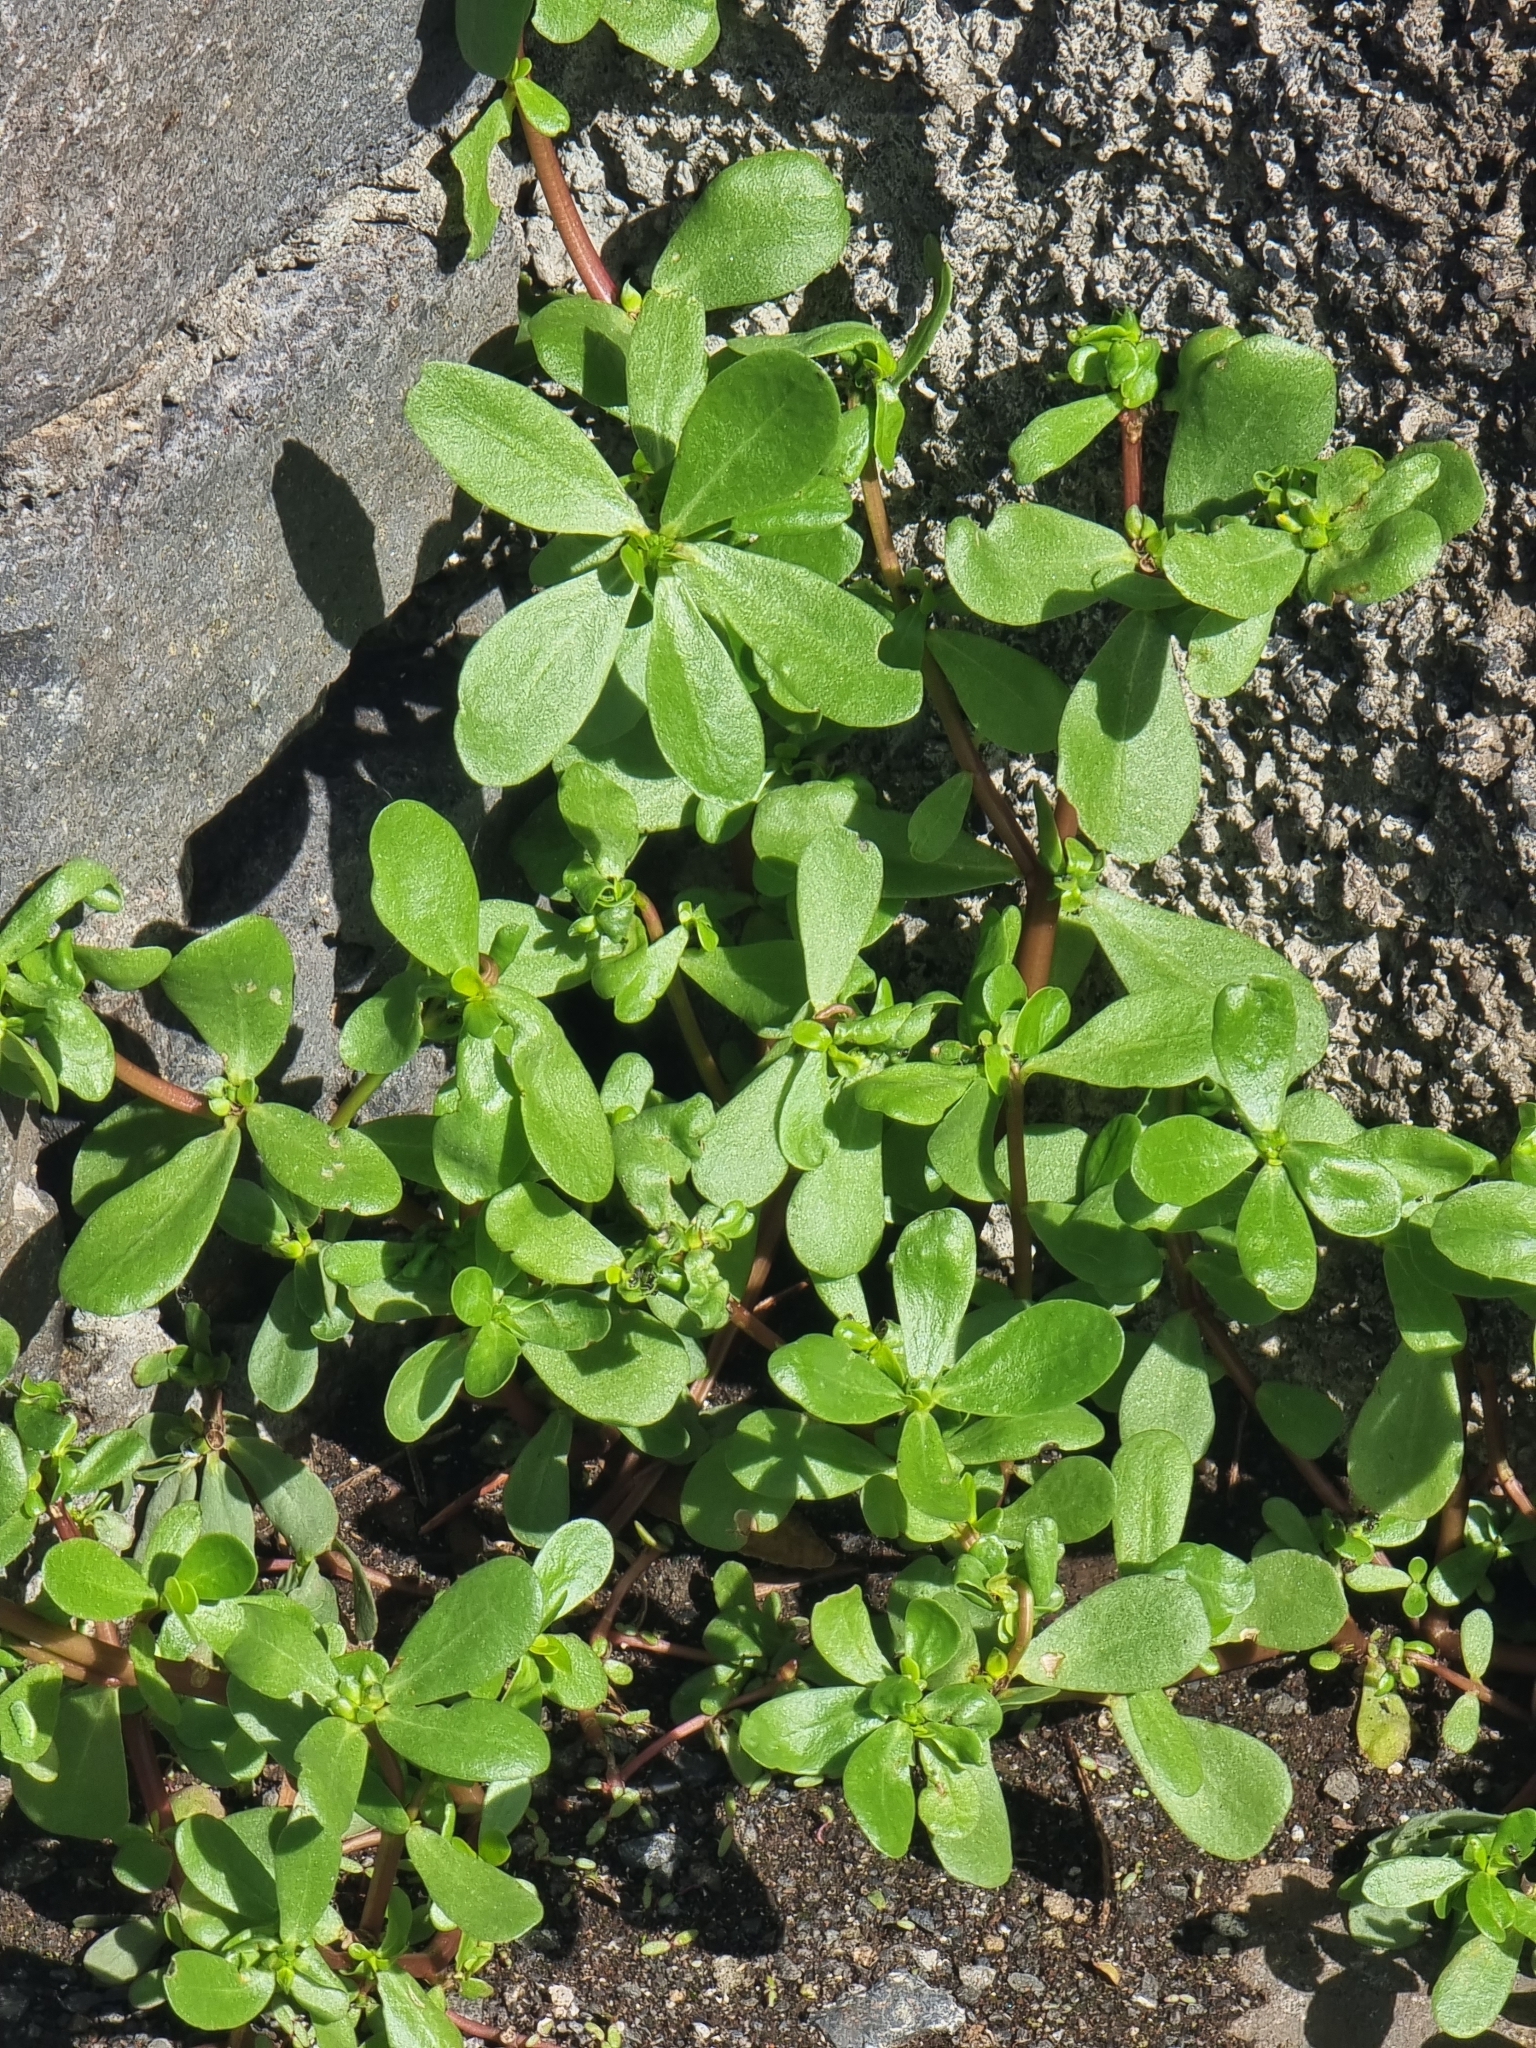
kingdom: Plantae
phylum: Tracheophyta
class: Magnoliopsida
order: Caryophyllales
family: Portulacaceae
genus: Portulaca
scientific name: Portulaca oleracea
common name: Common purslane
